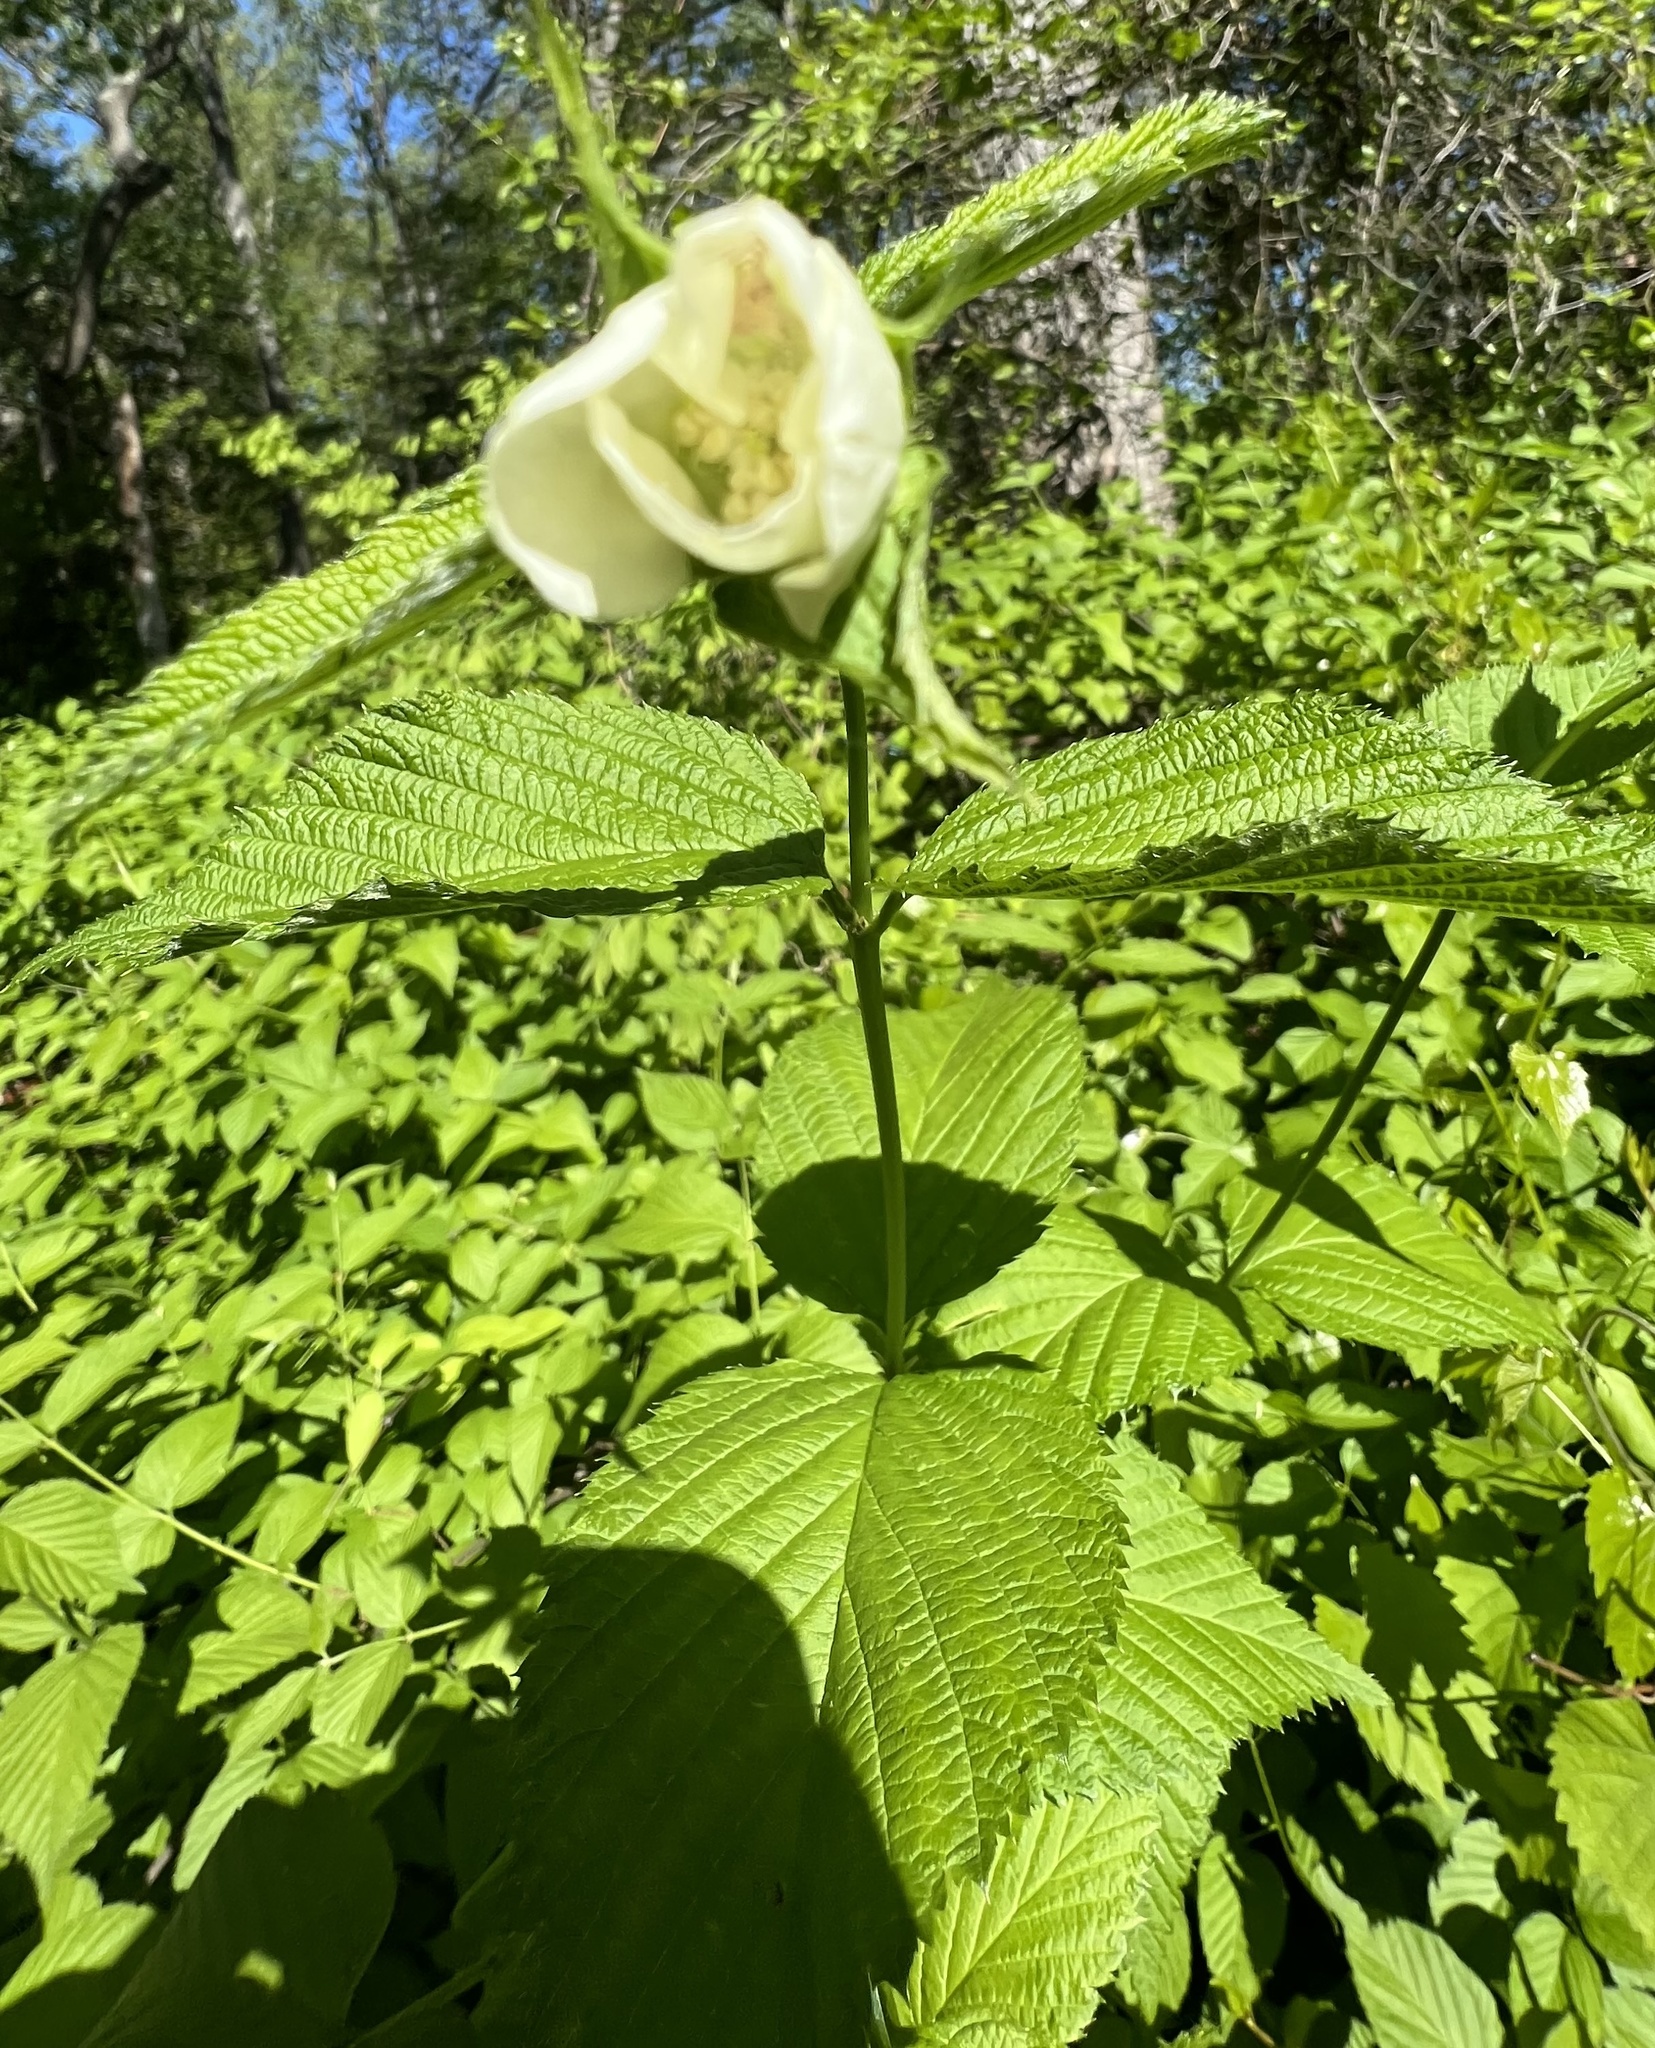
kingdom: Plantae
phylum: Tracheophyta
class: Magnoliopsida
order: Rosales
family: Rosaceae
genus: Rhodotypos
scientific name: Rhodotypos scandens
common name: Jetbead
